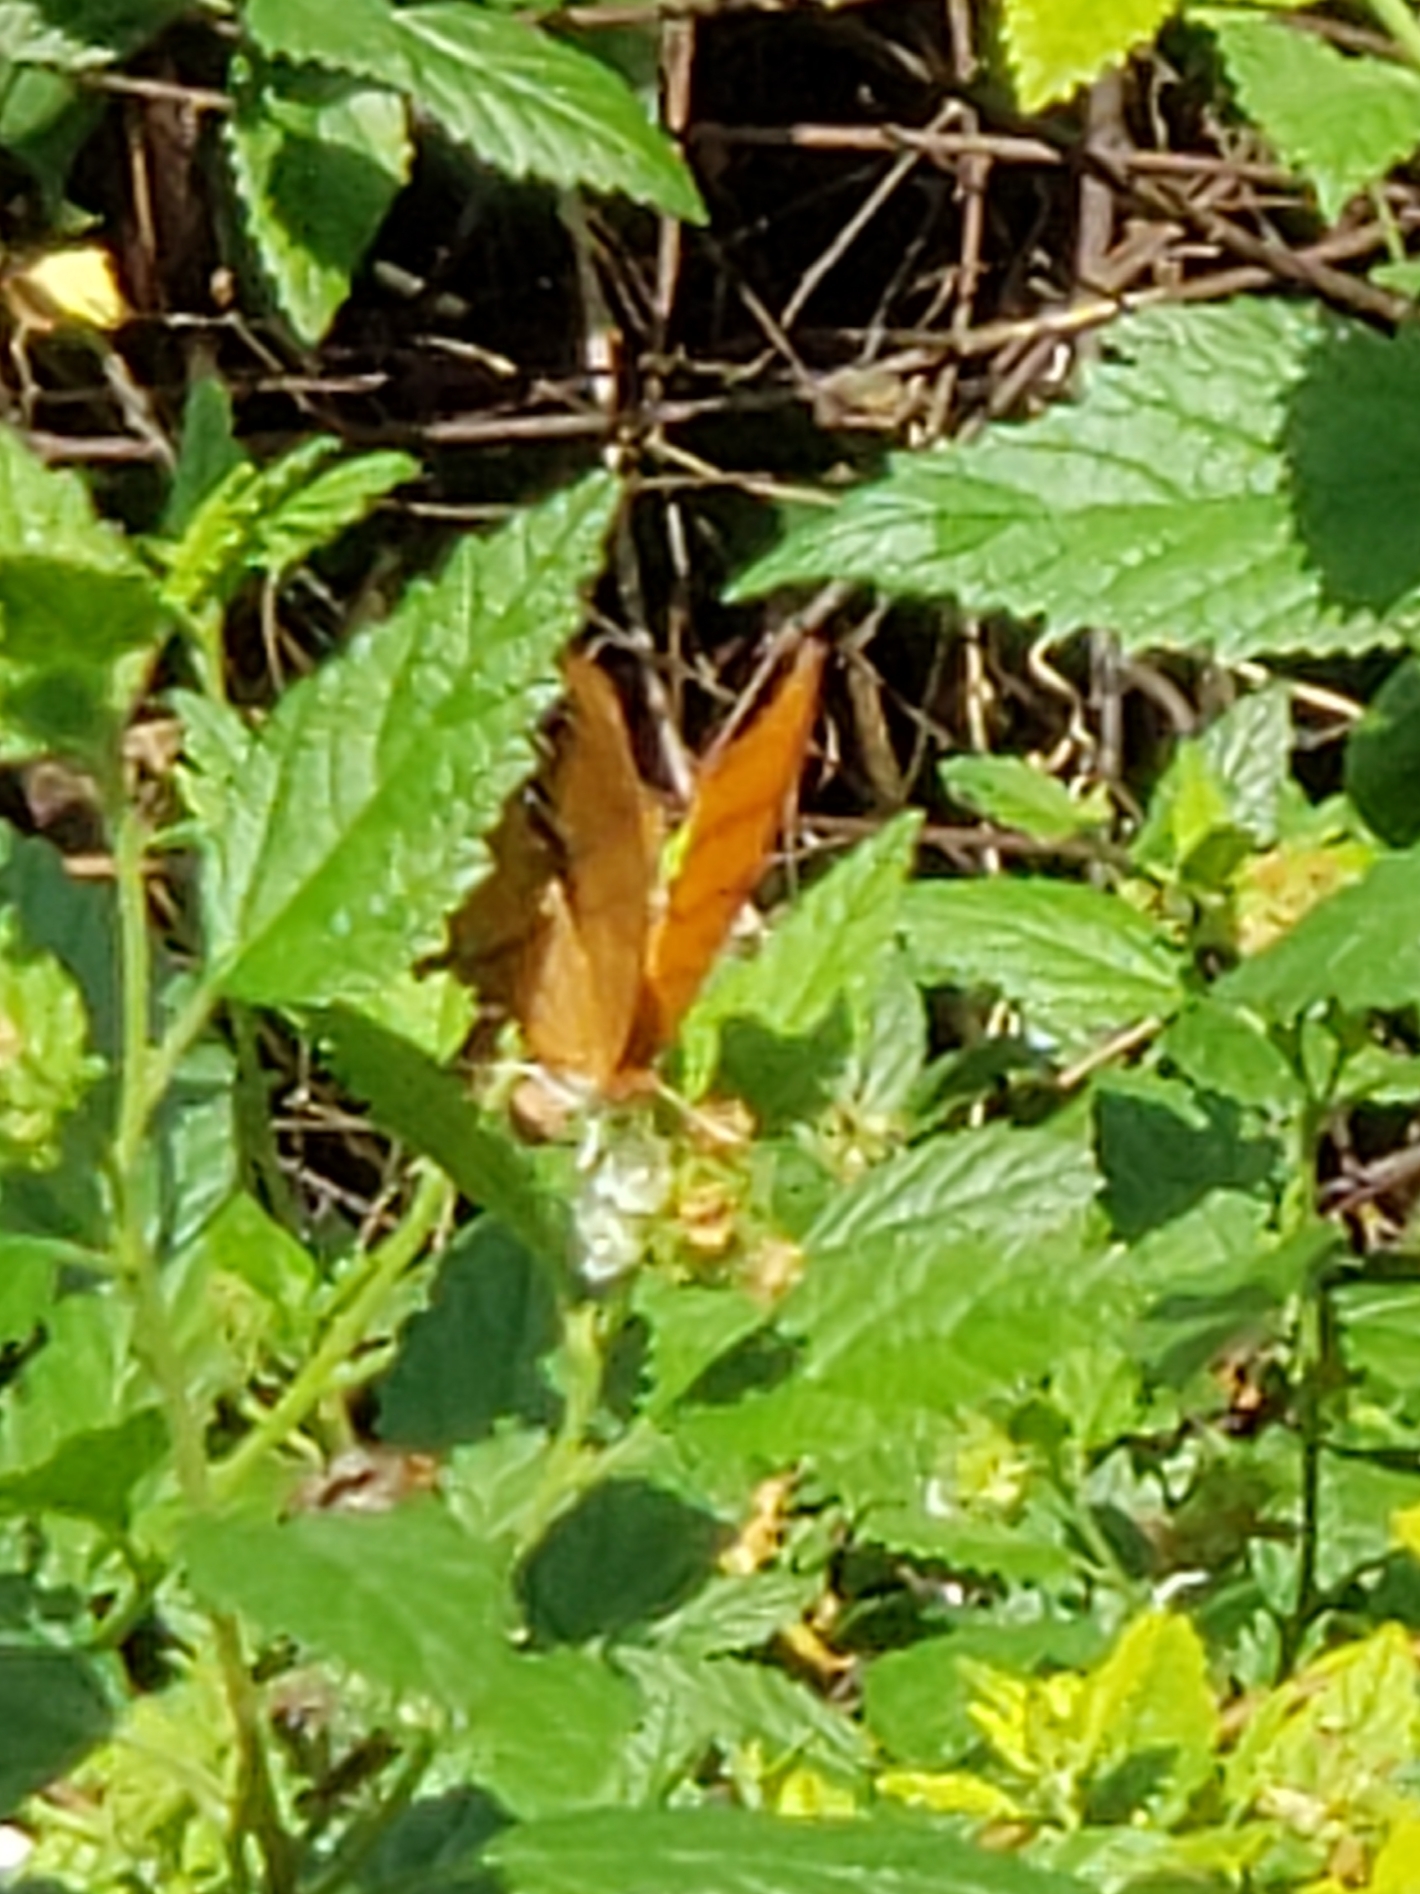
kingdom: Animalia
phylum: Arthropoda
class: Insecta
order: Lepidoptera
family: Nymphalidae
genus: Marpesia
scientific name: Marpesia petreus
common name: Red dagger wing
